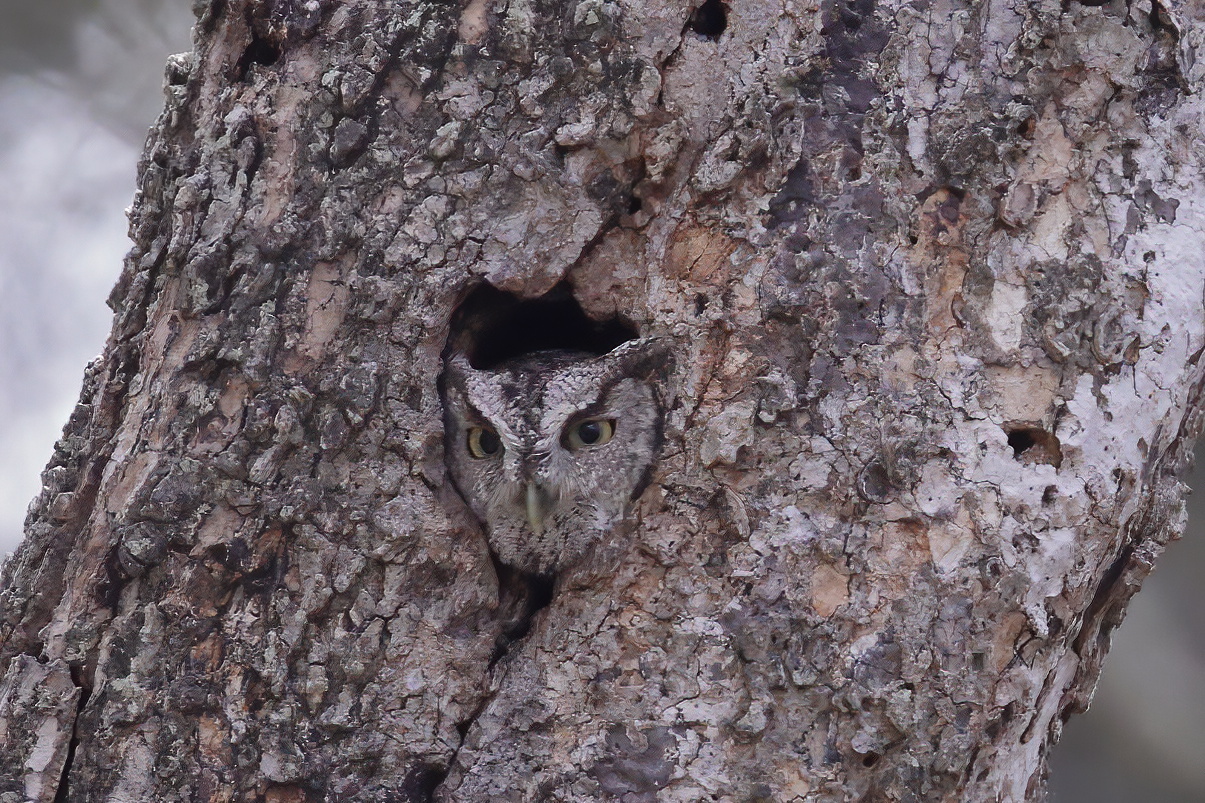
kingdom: Animalia
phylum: Chordata
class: Aves
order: Strigiformes
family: Strigidae
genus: Megascops
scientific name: Megascops asio
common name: Eastern screech-owl
